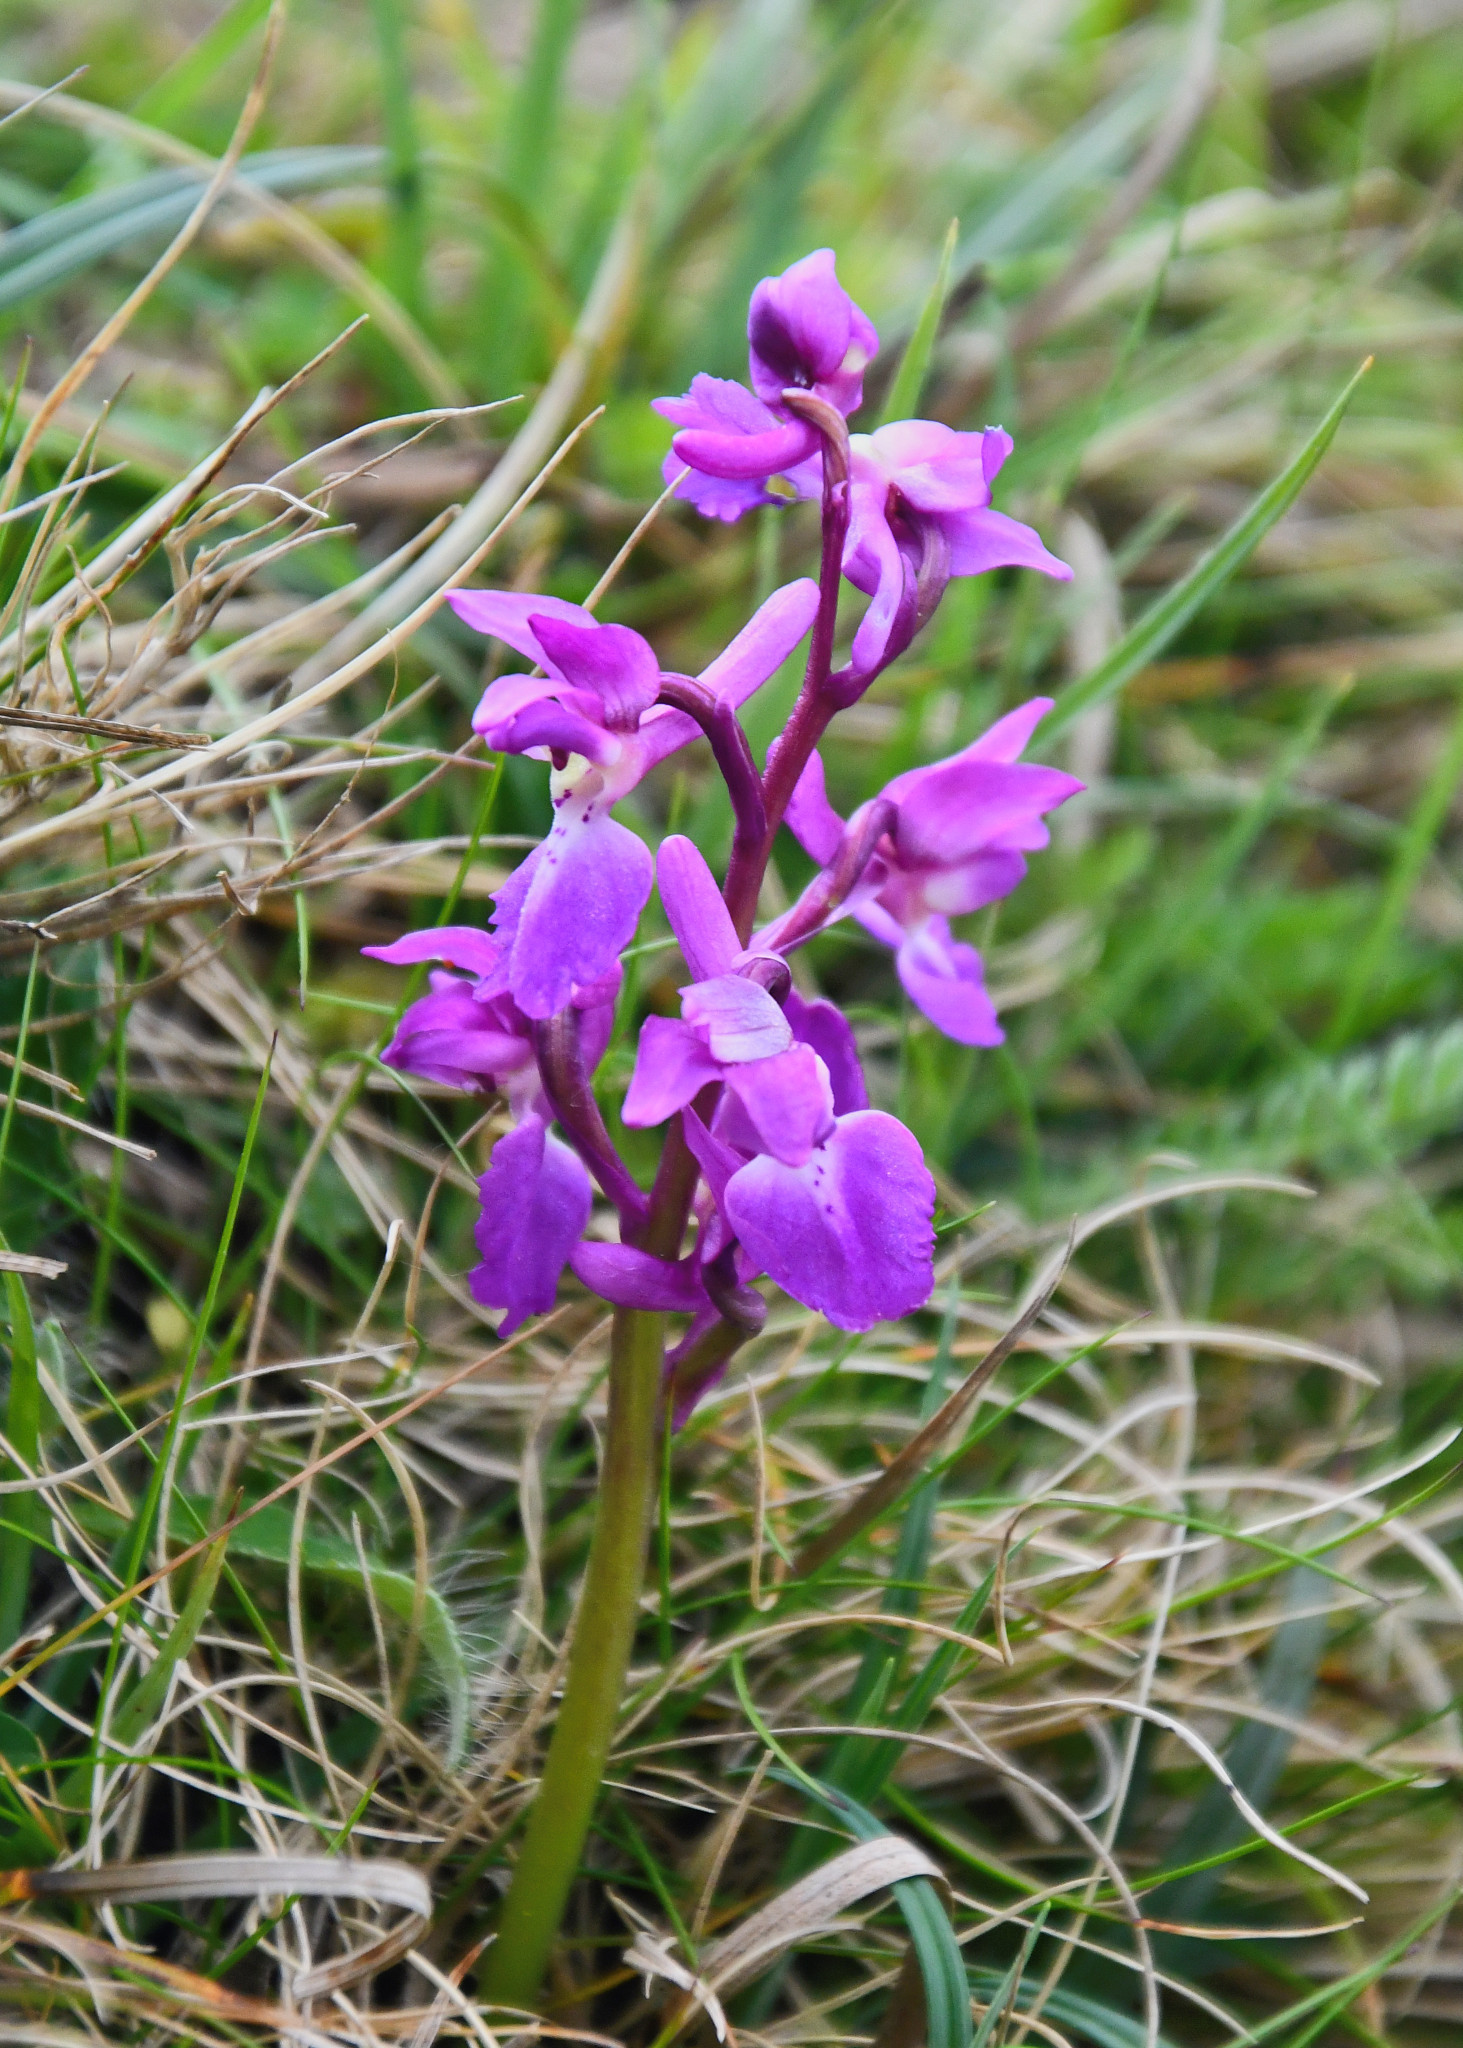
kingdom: Plantae
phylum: Tracheophyta
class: Liliopsida
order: Asparagales
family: Orchidaceae
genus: Orchis
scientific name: Orchis mascula
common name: Early-purple orchid
